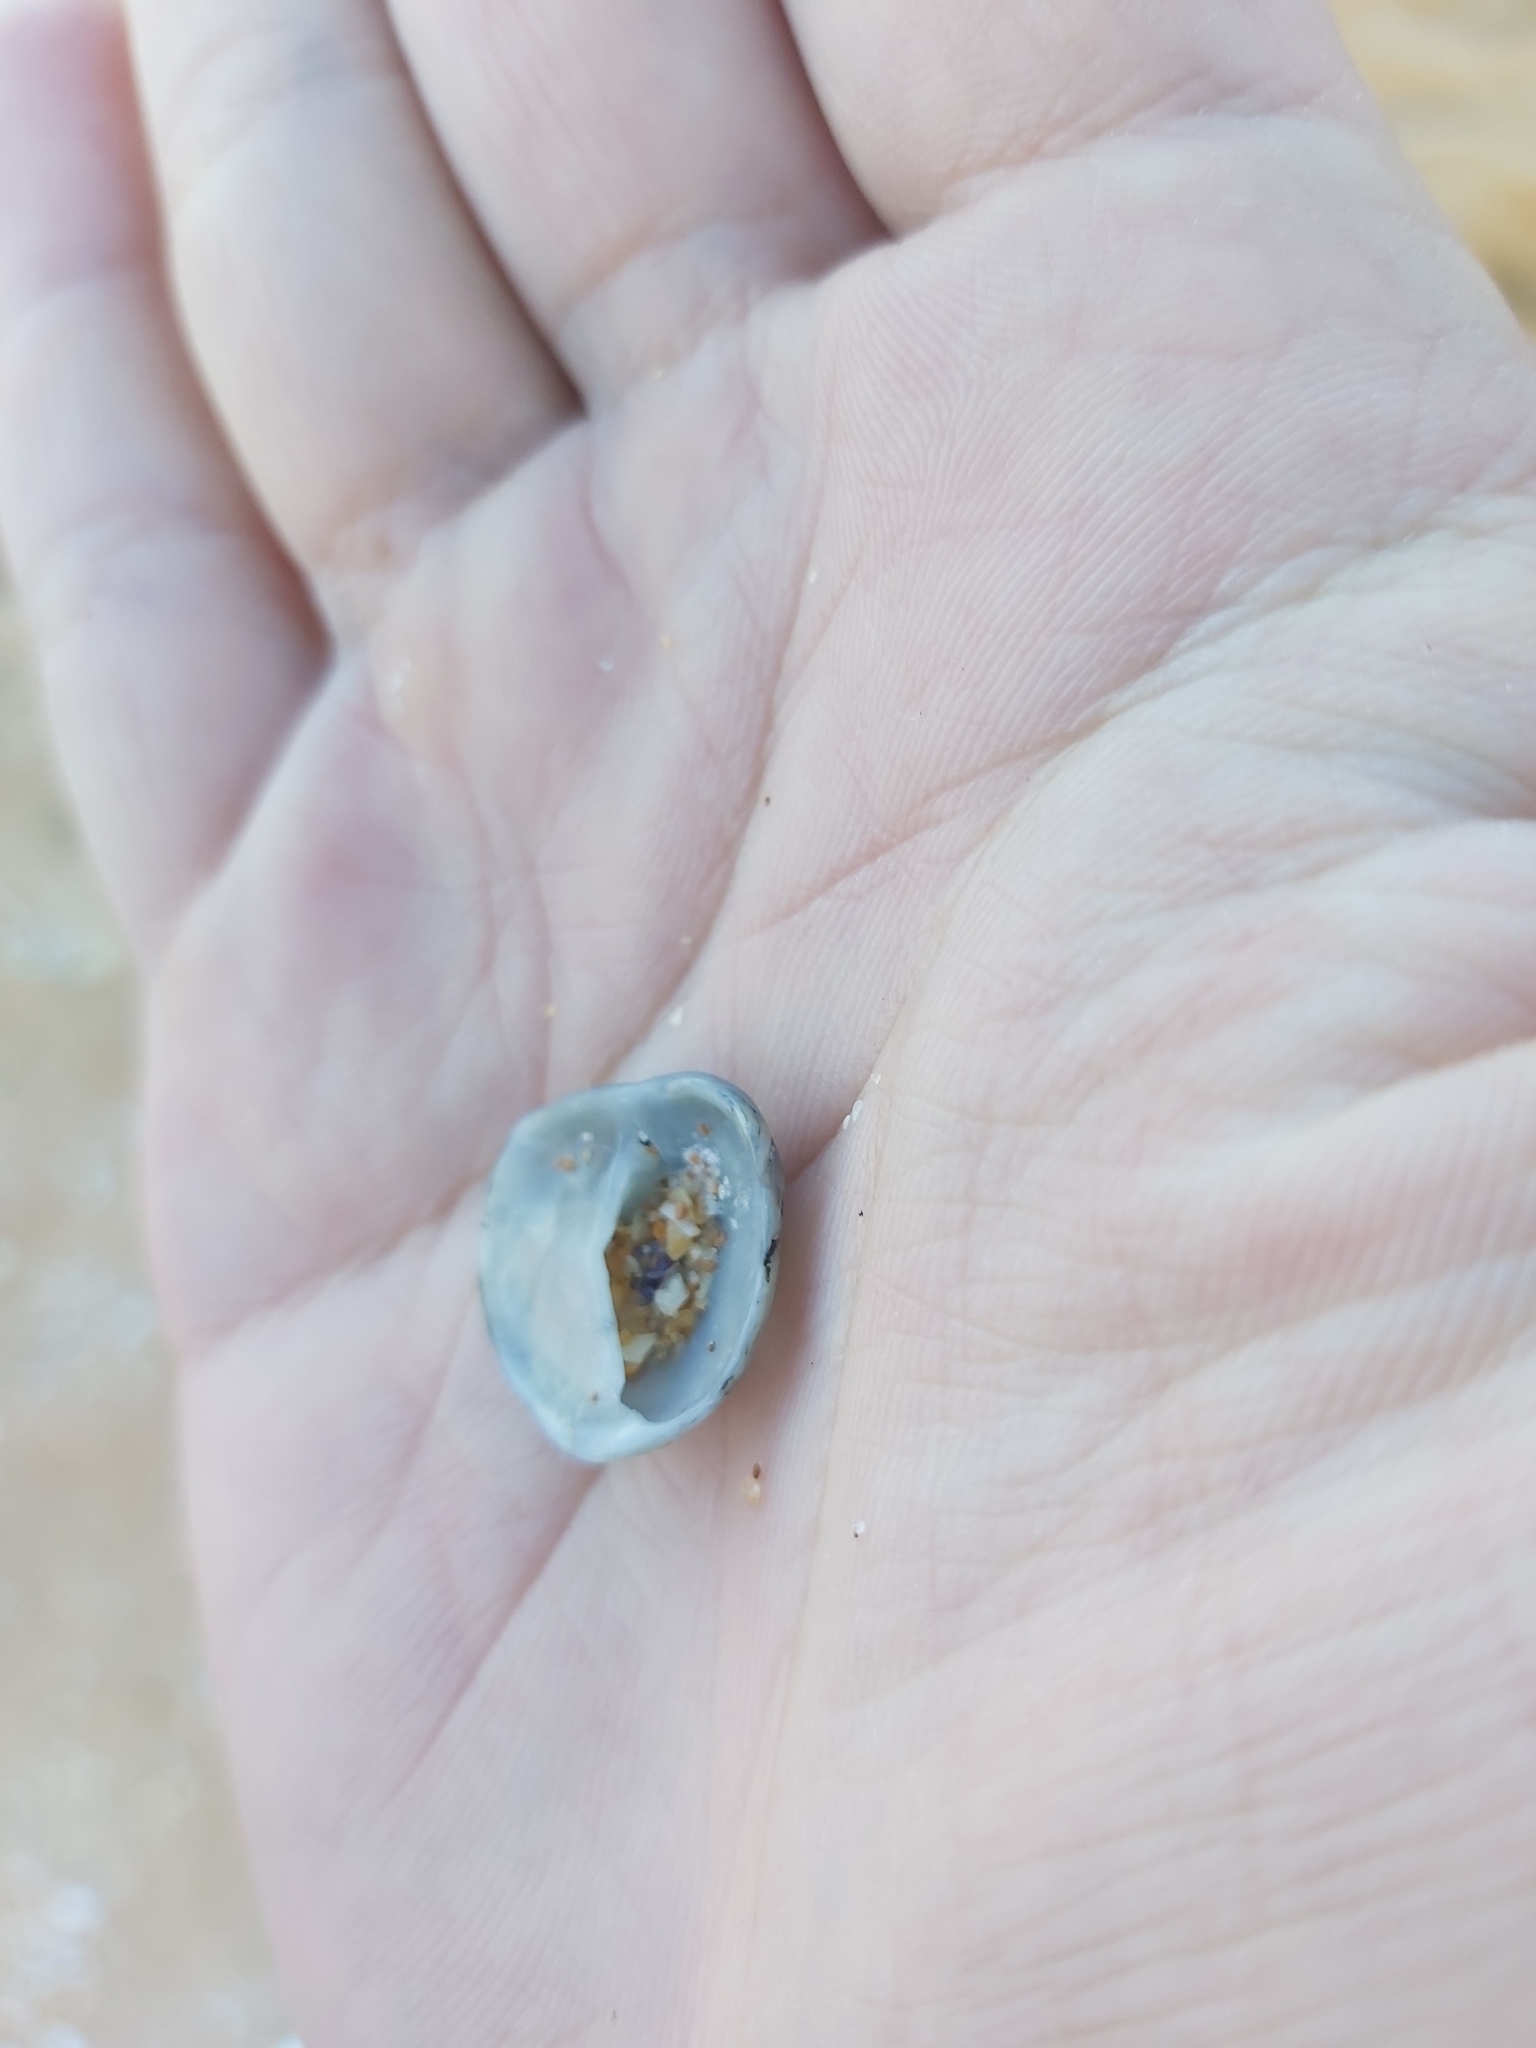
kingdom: Animalia
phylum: Mollusca
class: Gastropoda
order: Littorinimorpha
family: Calyptraeidae
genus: Bostrycapulus
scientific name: Bostrycapulus pritzkeri
